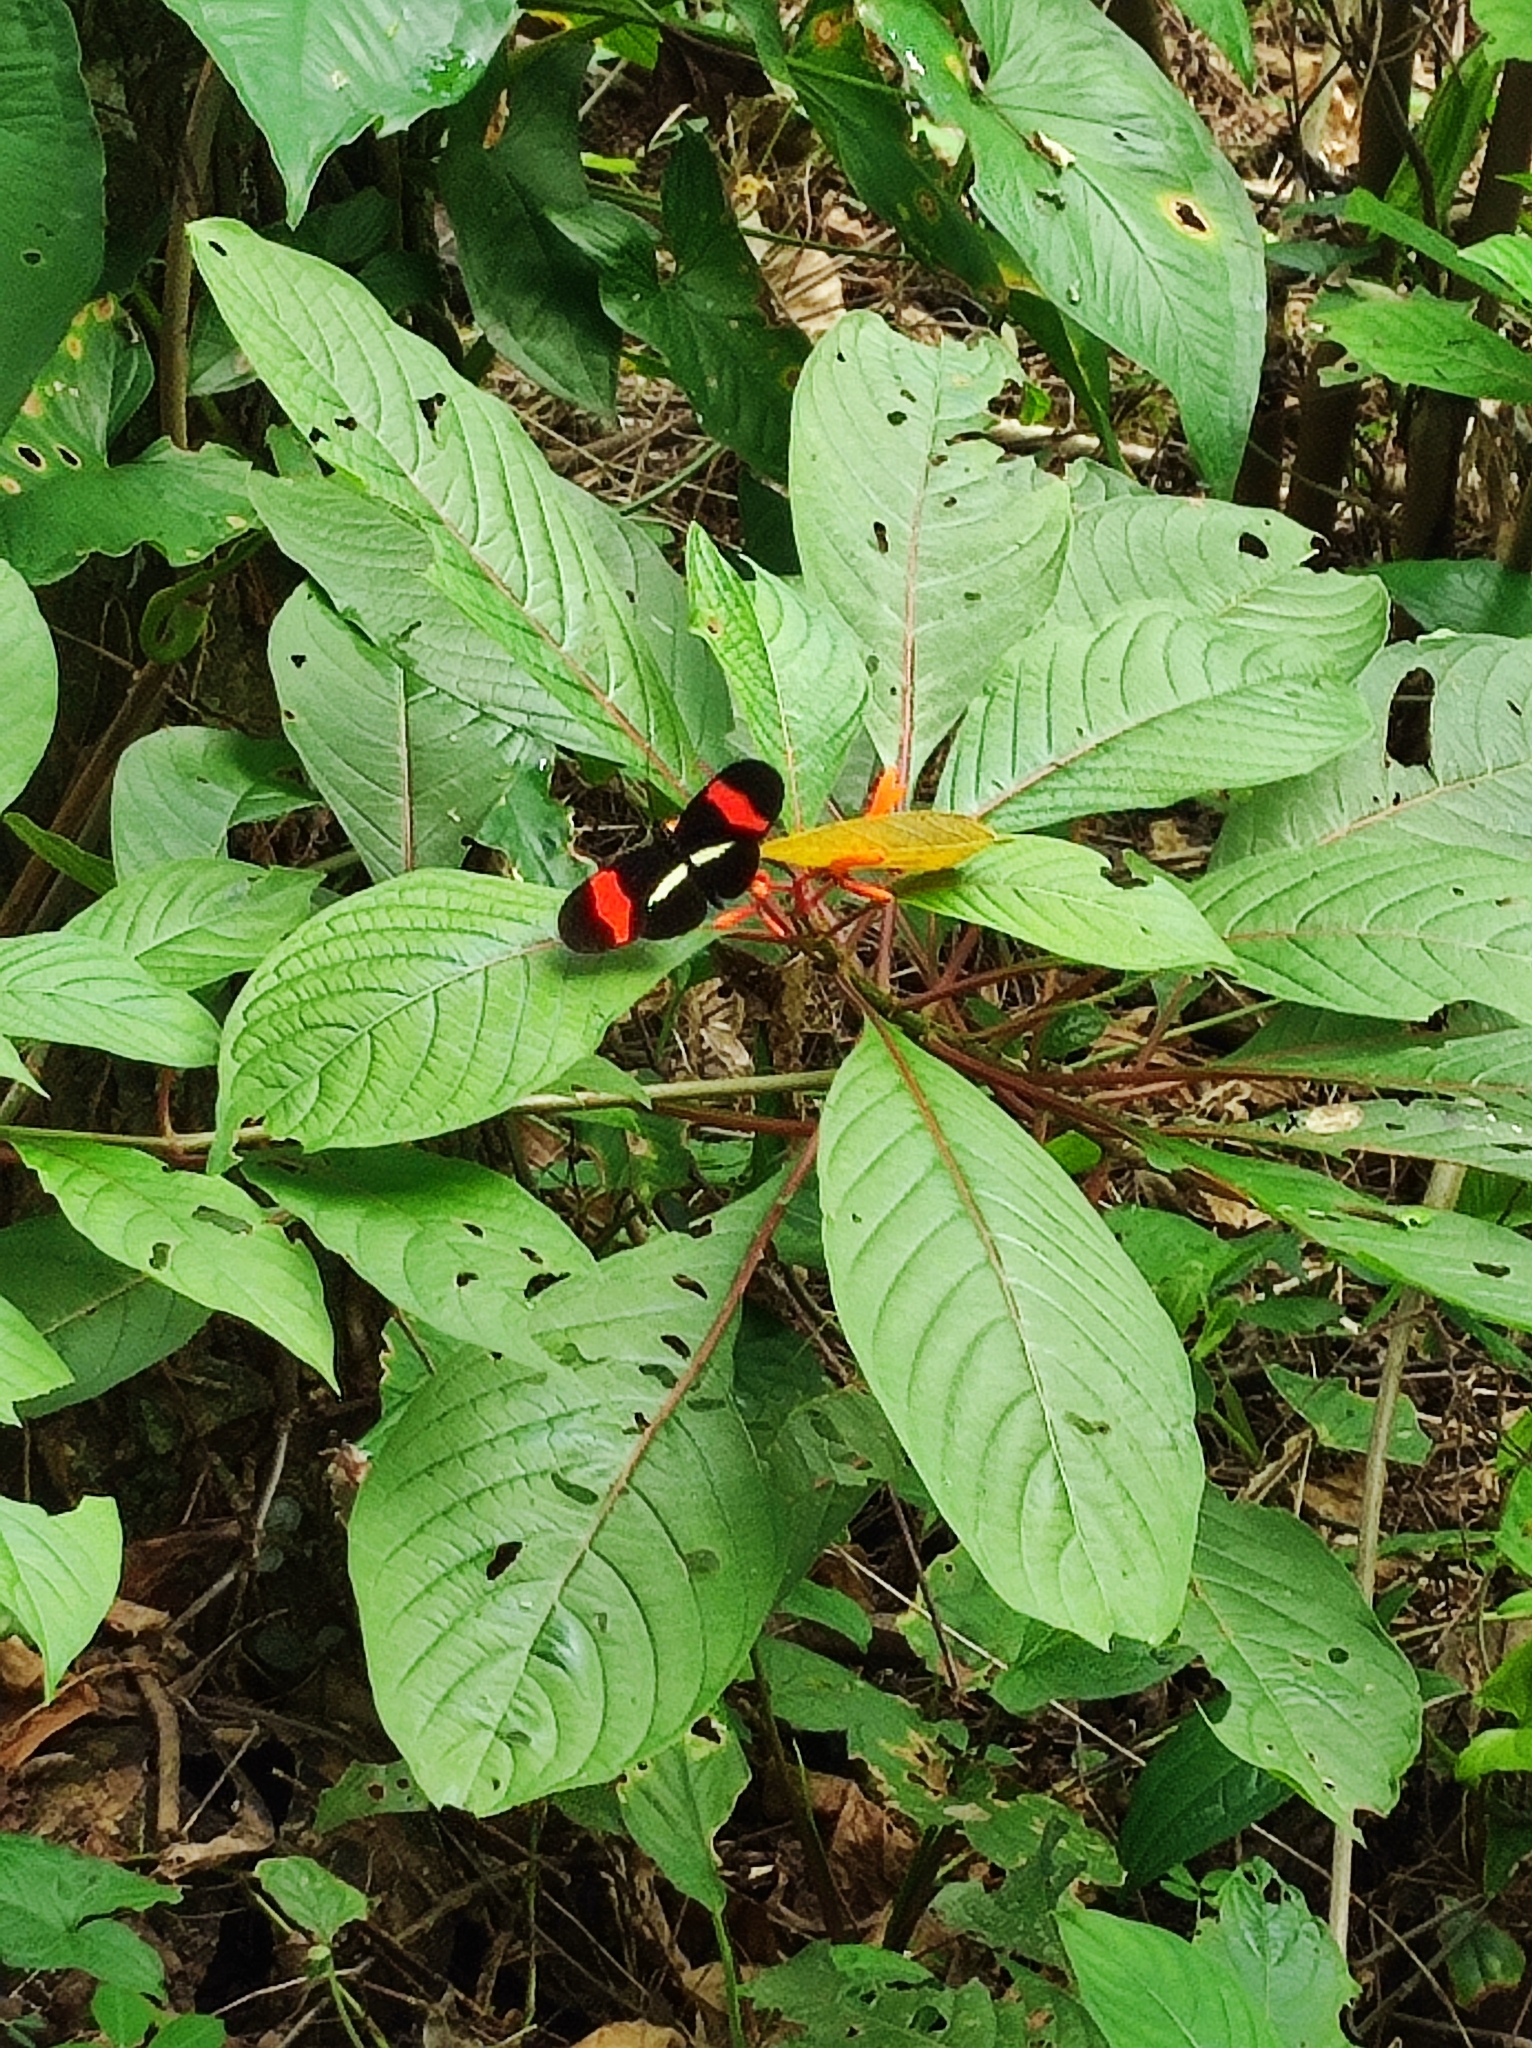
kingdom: Animalia
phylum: Arthropoda
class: Insecta
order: Lepidoptera
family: Nymphalidae
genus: Tirumala
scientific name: Tirumala petiverana
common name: Blue monarch
